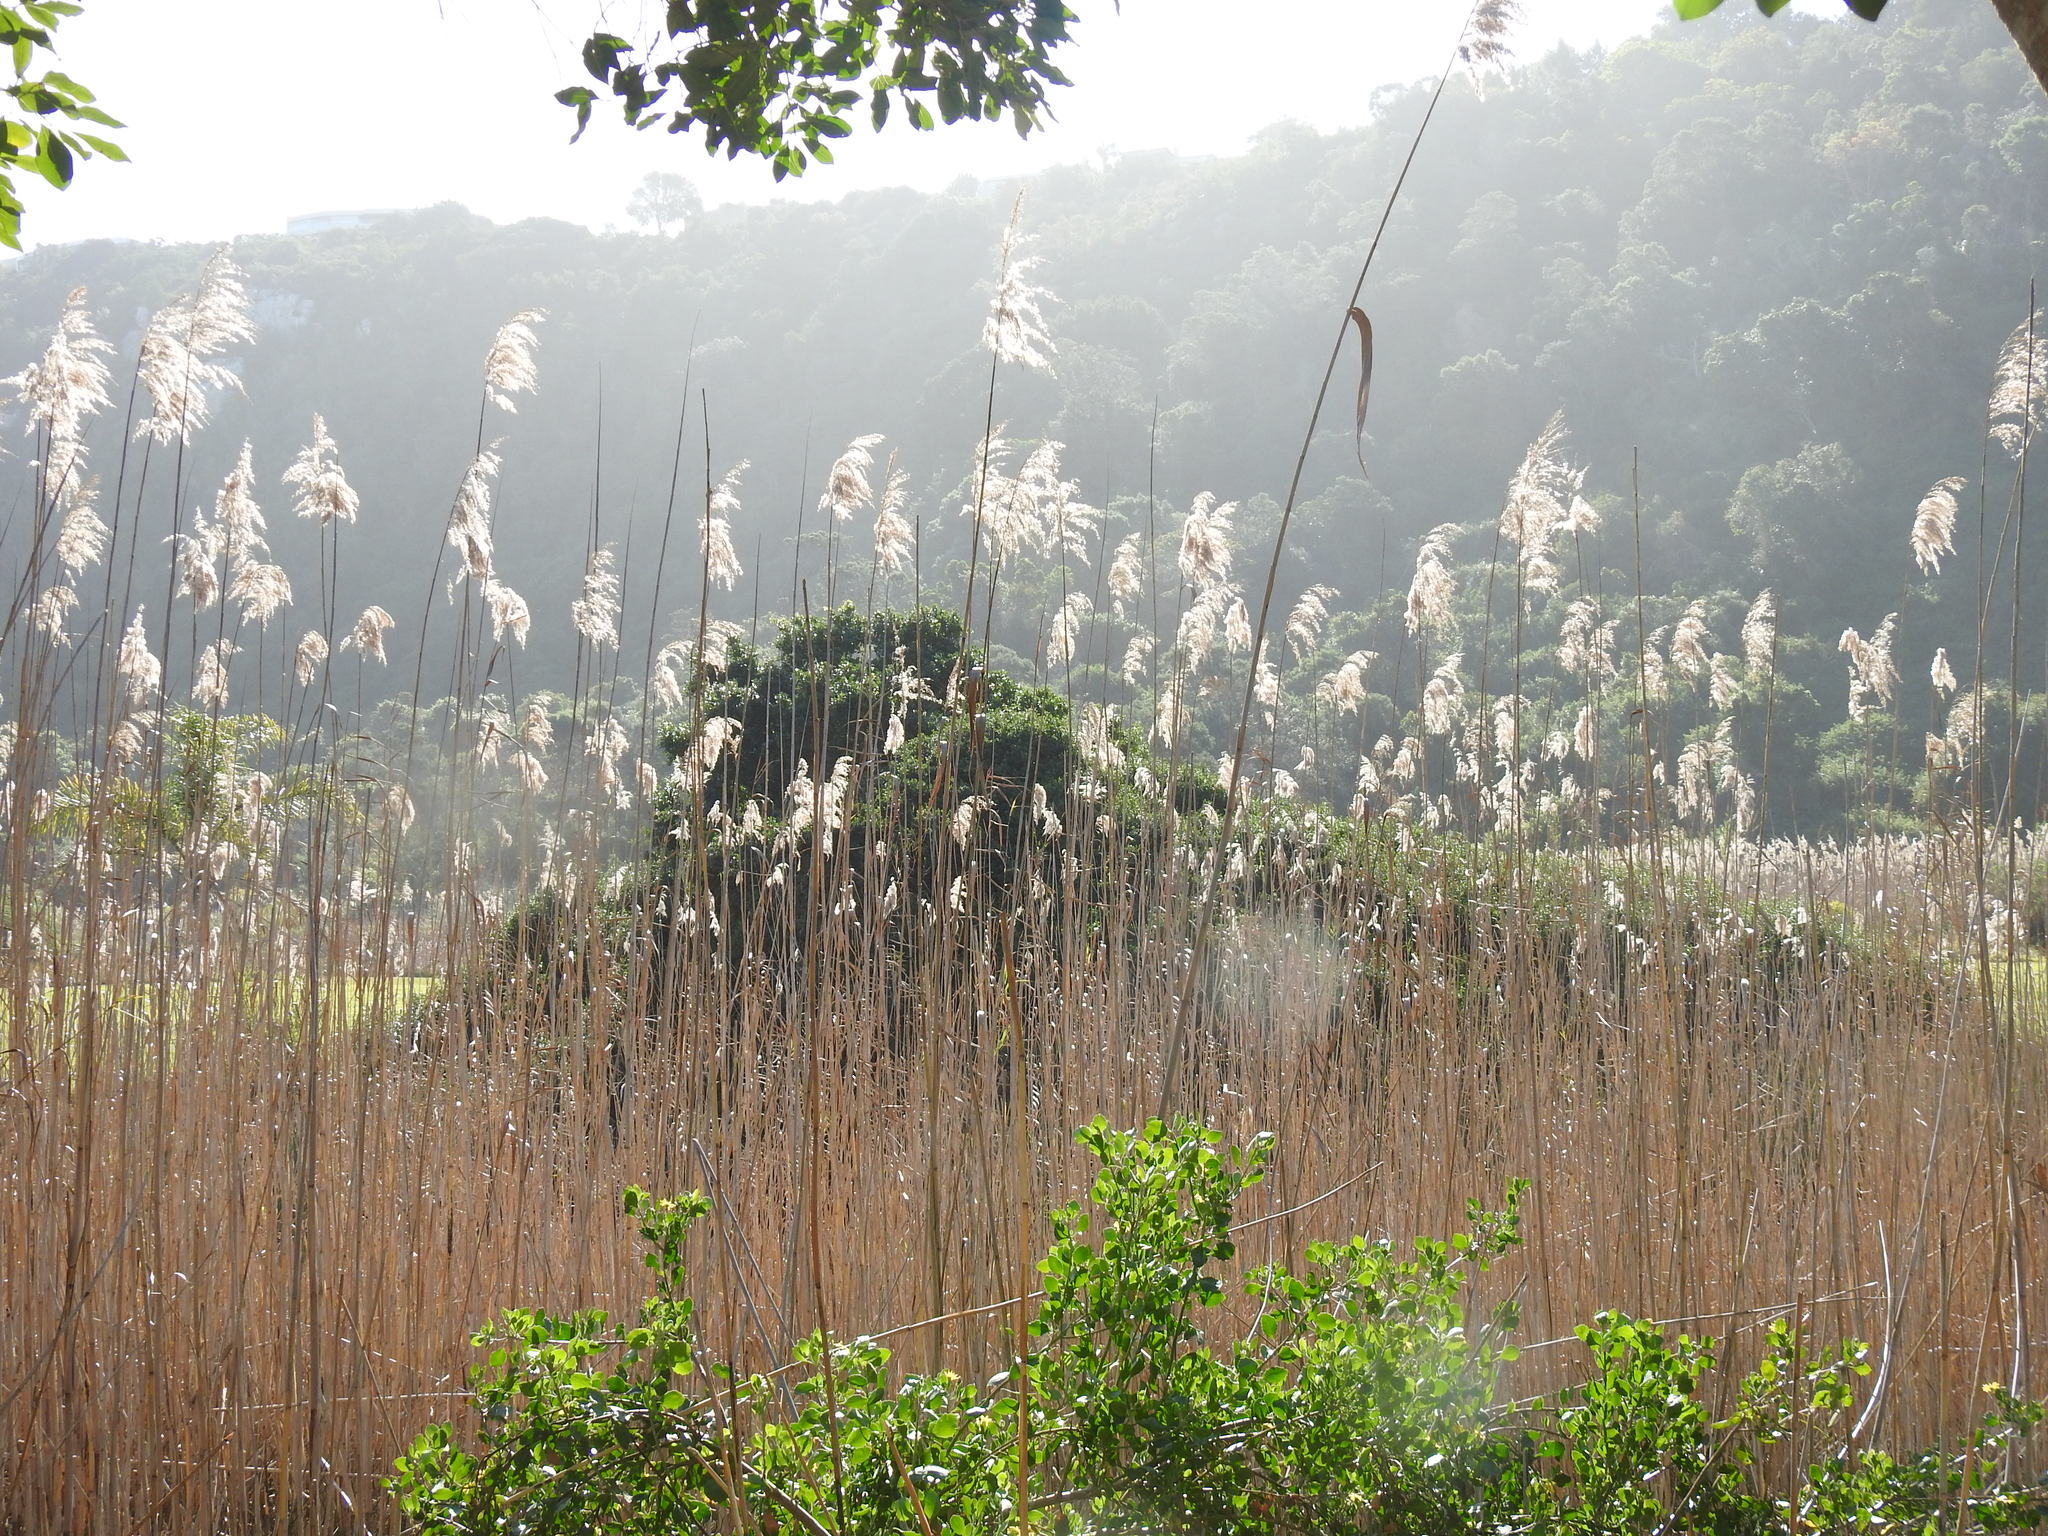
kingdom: Plantae
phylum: Tracheophyta
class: Liliopsida
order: Poales
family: Poaceae
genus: Phragmites
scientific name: Phragmites australis
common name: Common reed
